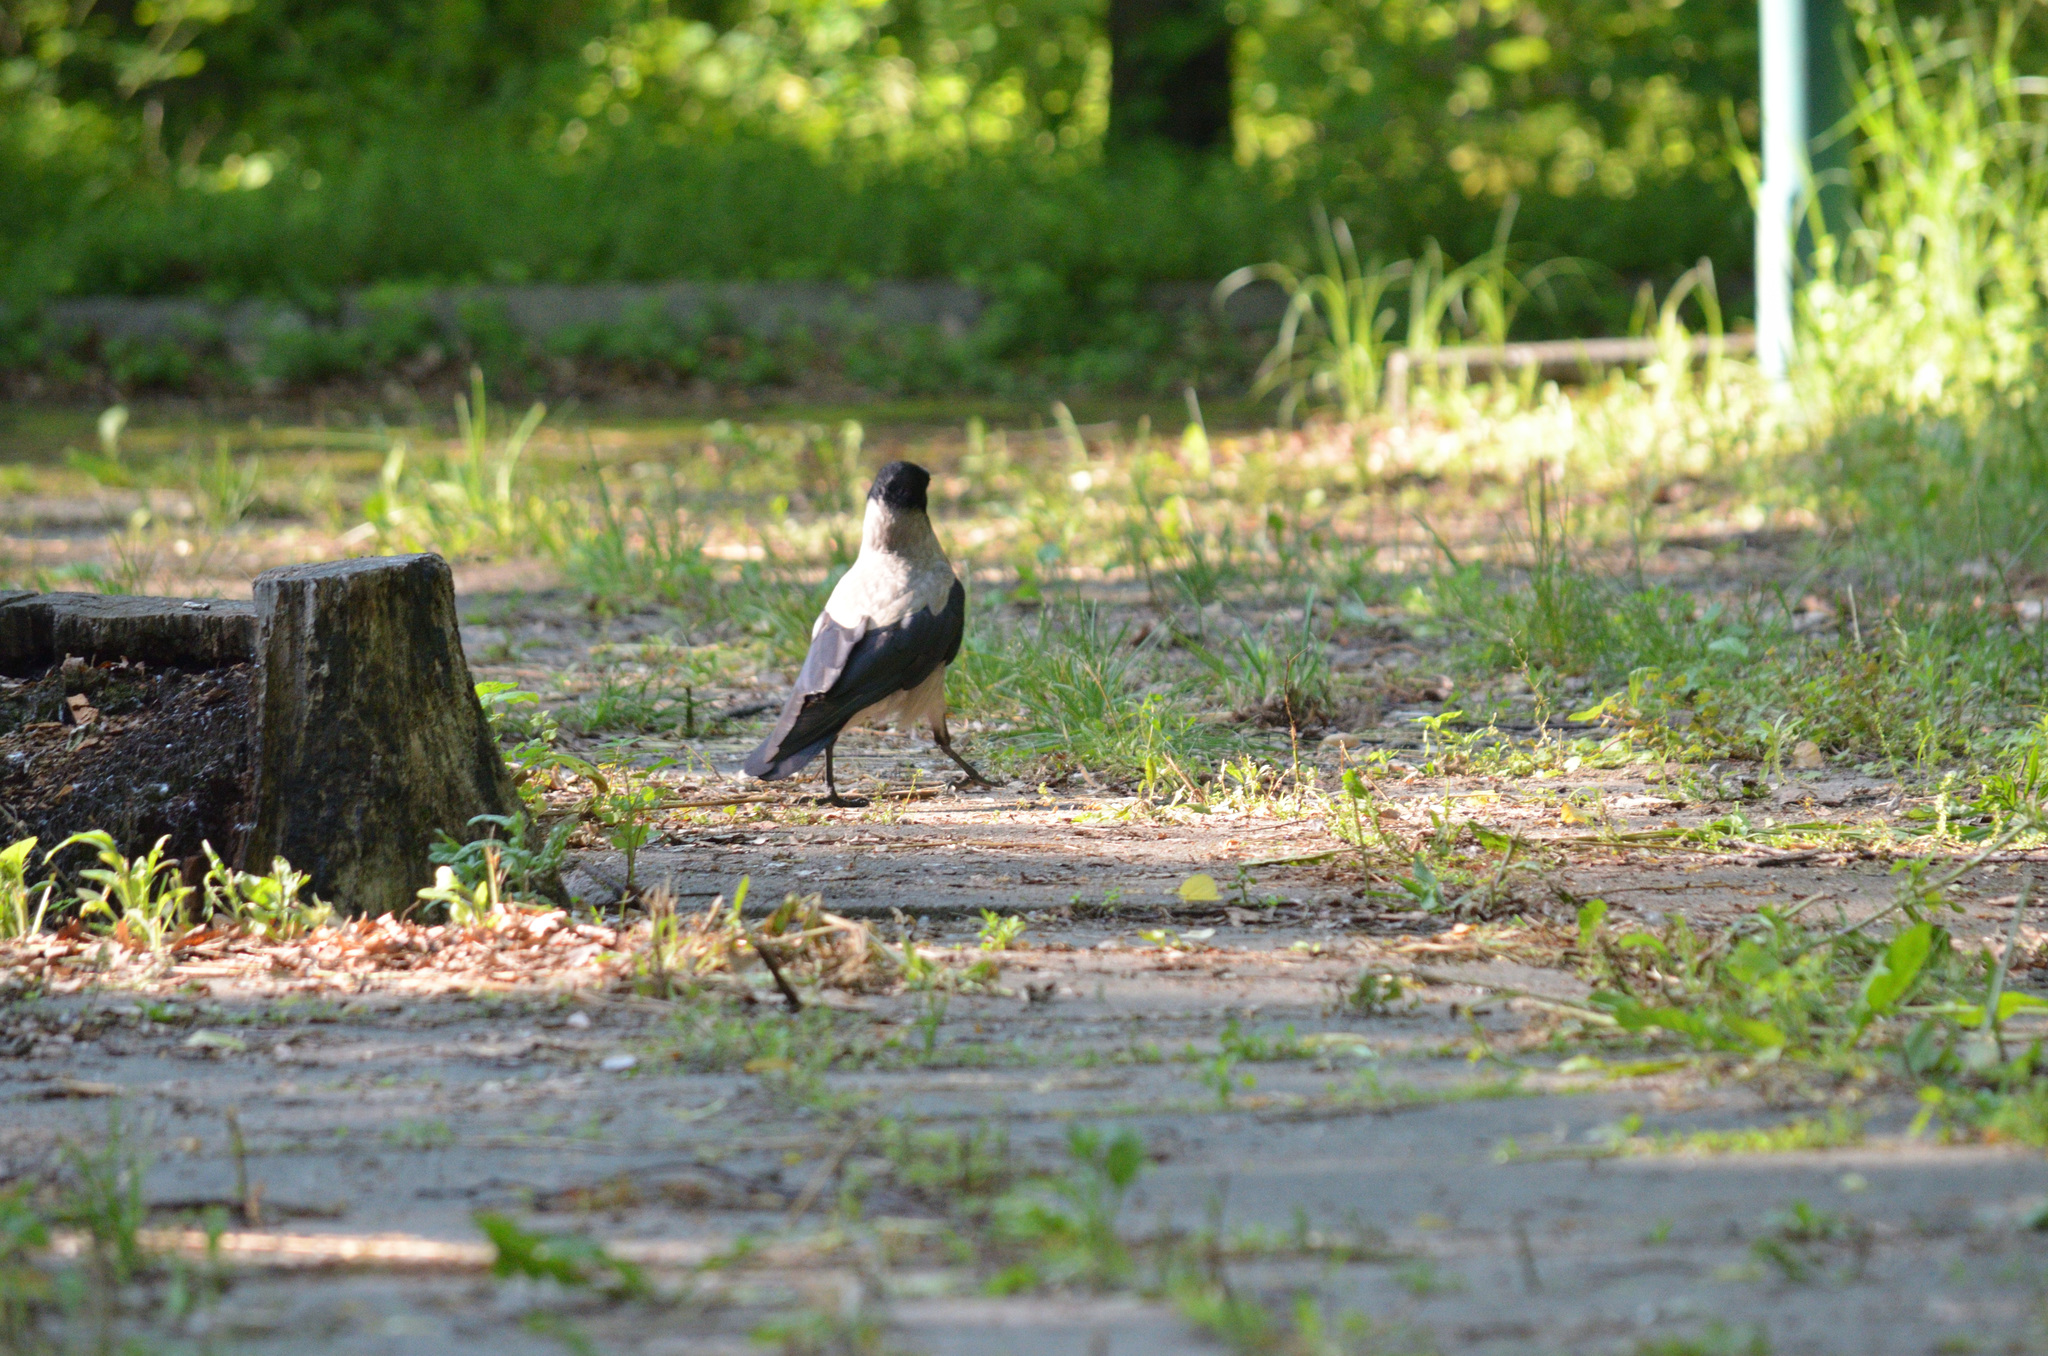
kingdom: Animalia
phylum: Chordata
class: Aves
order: Passeriformes
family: Corvidae
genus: Corvus
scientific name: Corvus cornix
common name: Hooded crow
